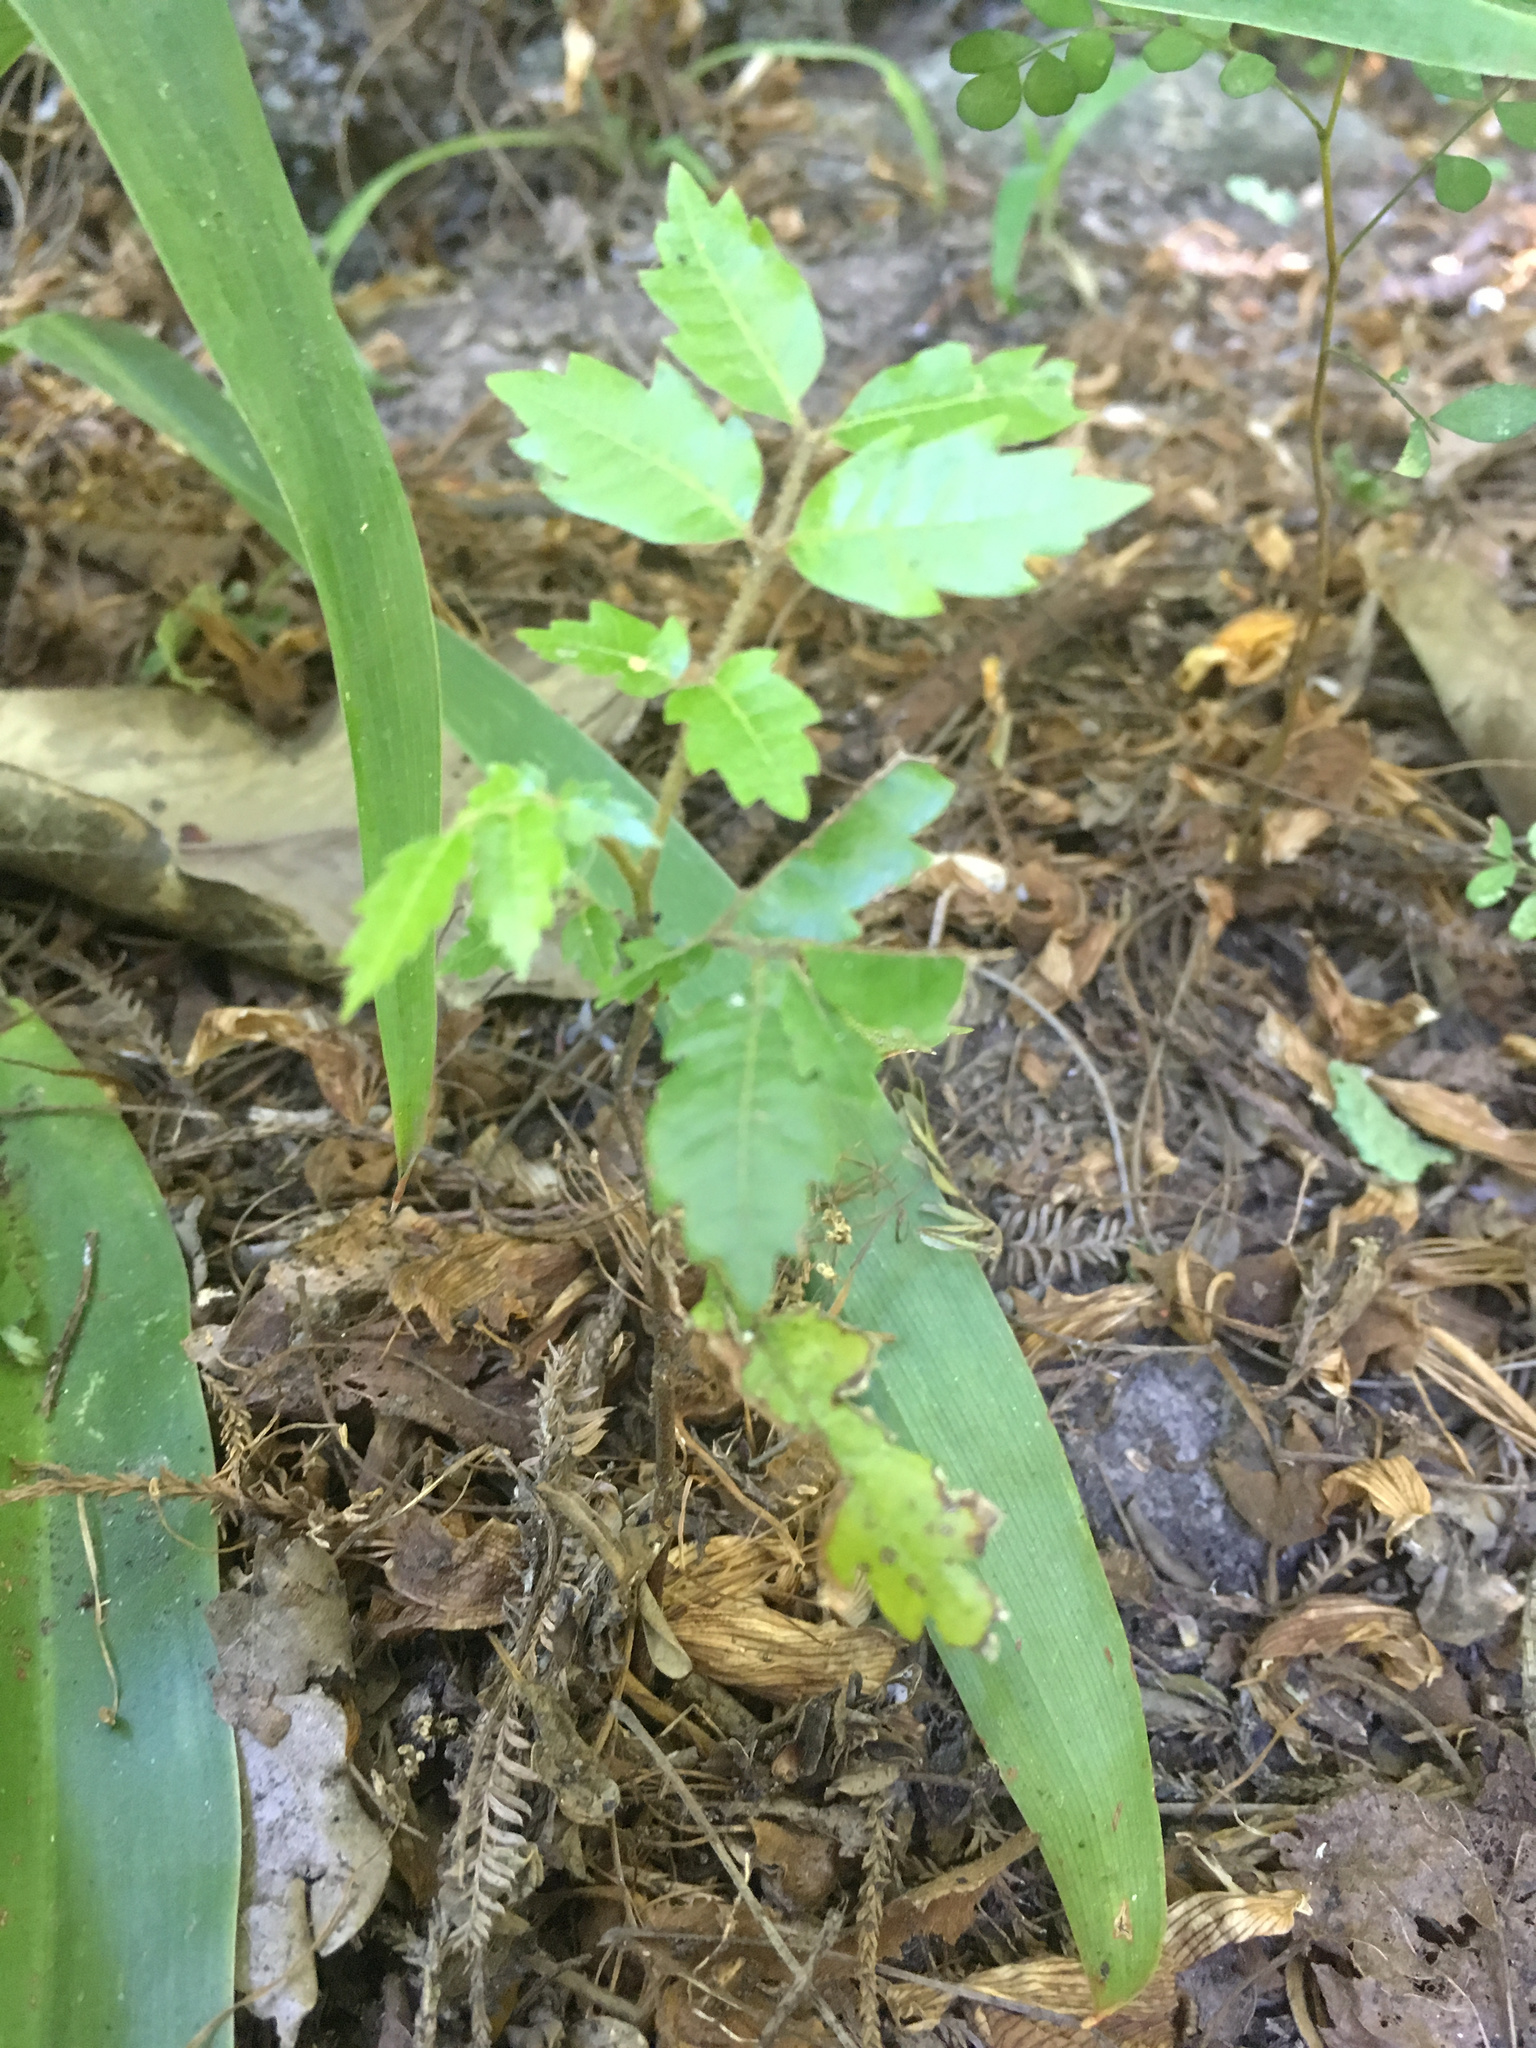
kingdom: Plantae
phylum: Tracheophyta
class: Magnoliopsida
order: Sapindales
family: Sapindaceae
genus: Alectryon
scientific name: Alectryon excelsus
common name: Three kings titoki
